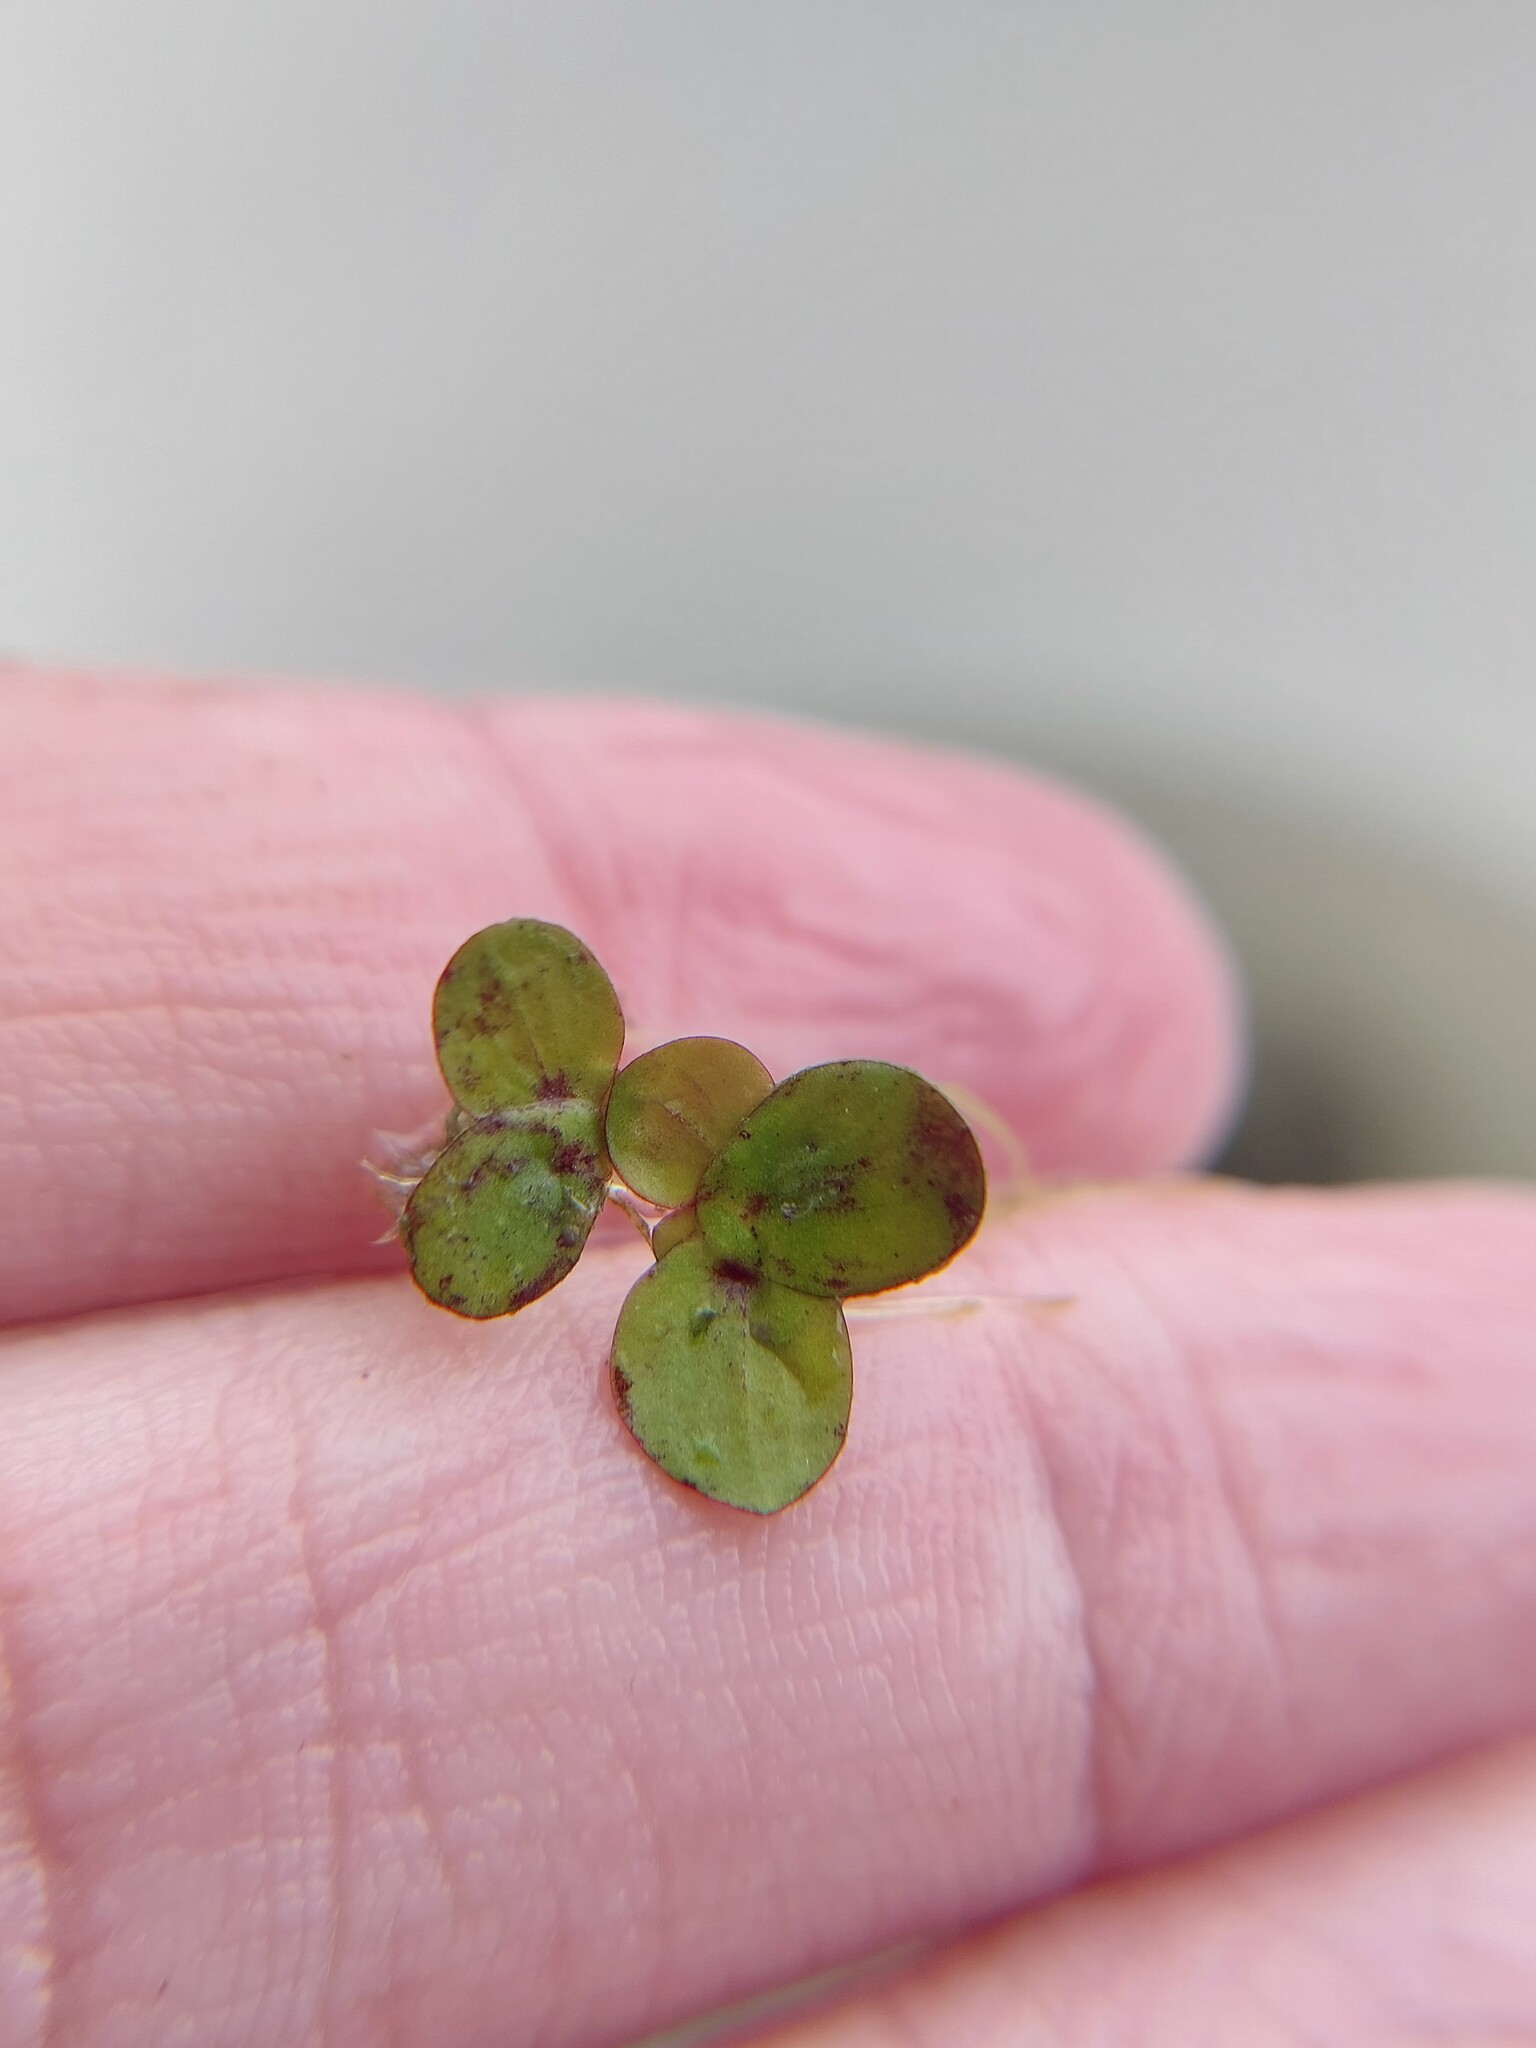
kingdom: Plantae
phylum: Tracheophyta
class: Liliopsida
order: Alismatales
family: Araceae
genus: Spirodela
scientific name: Spirodela polyrhiza
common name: Great duckweed
